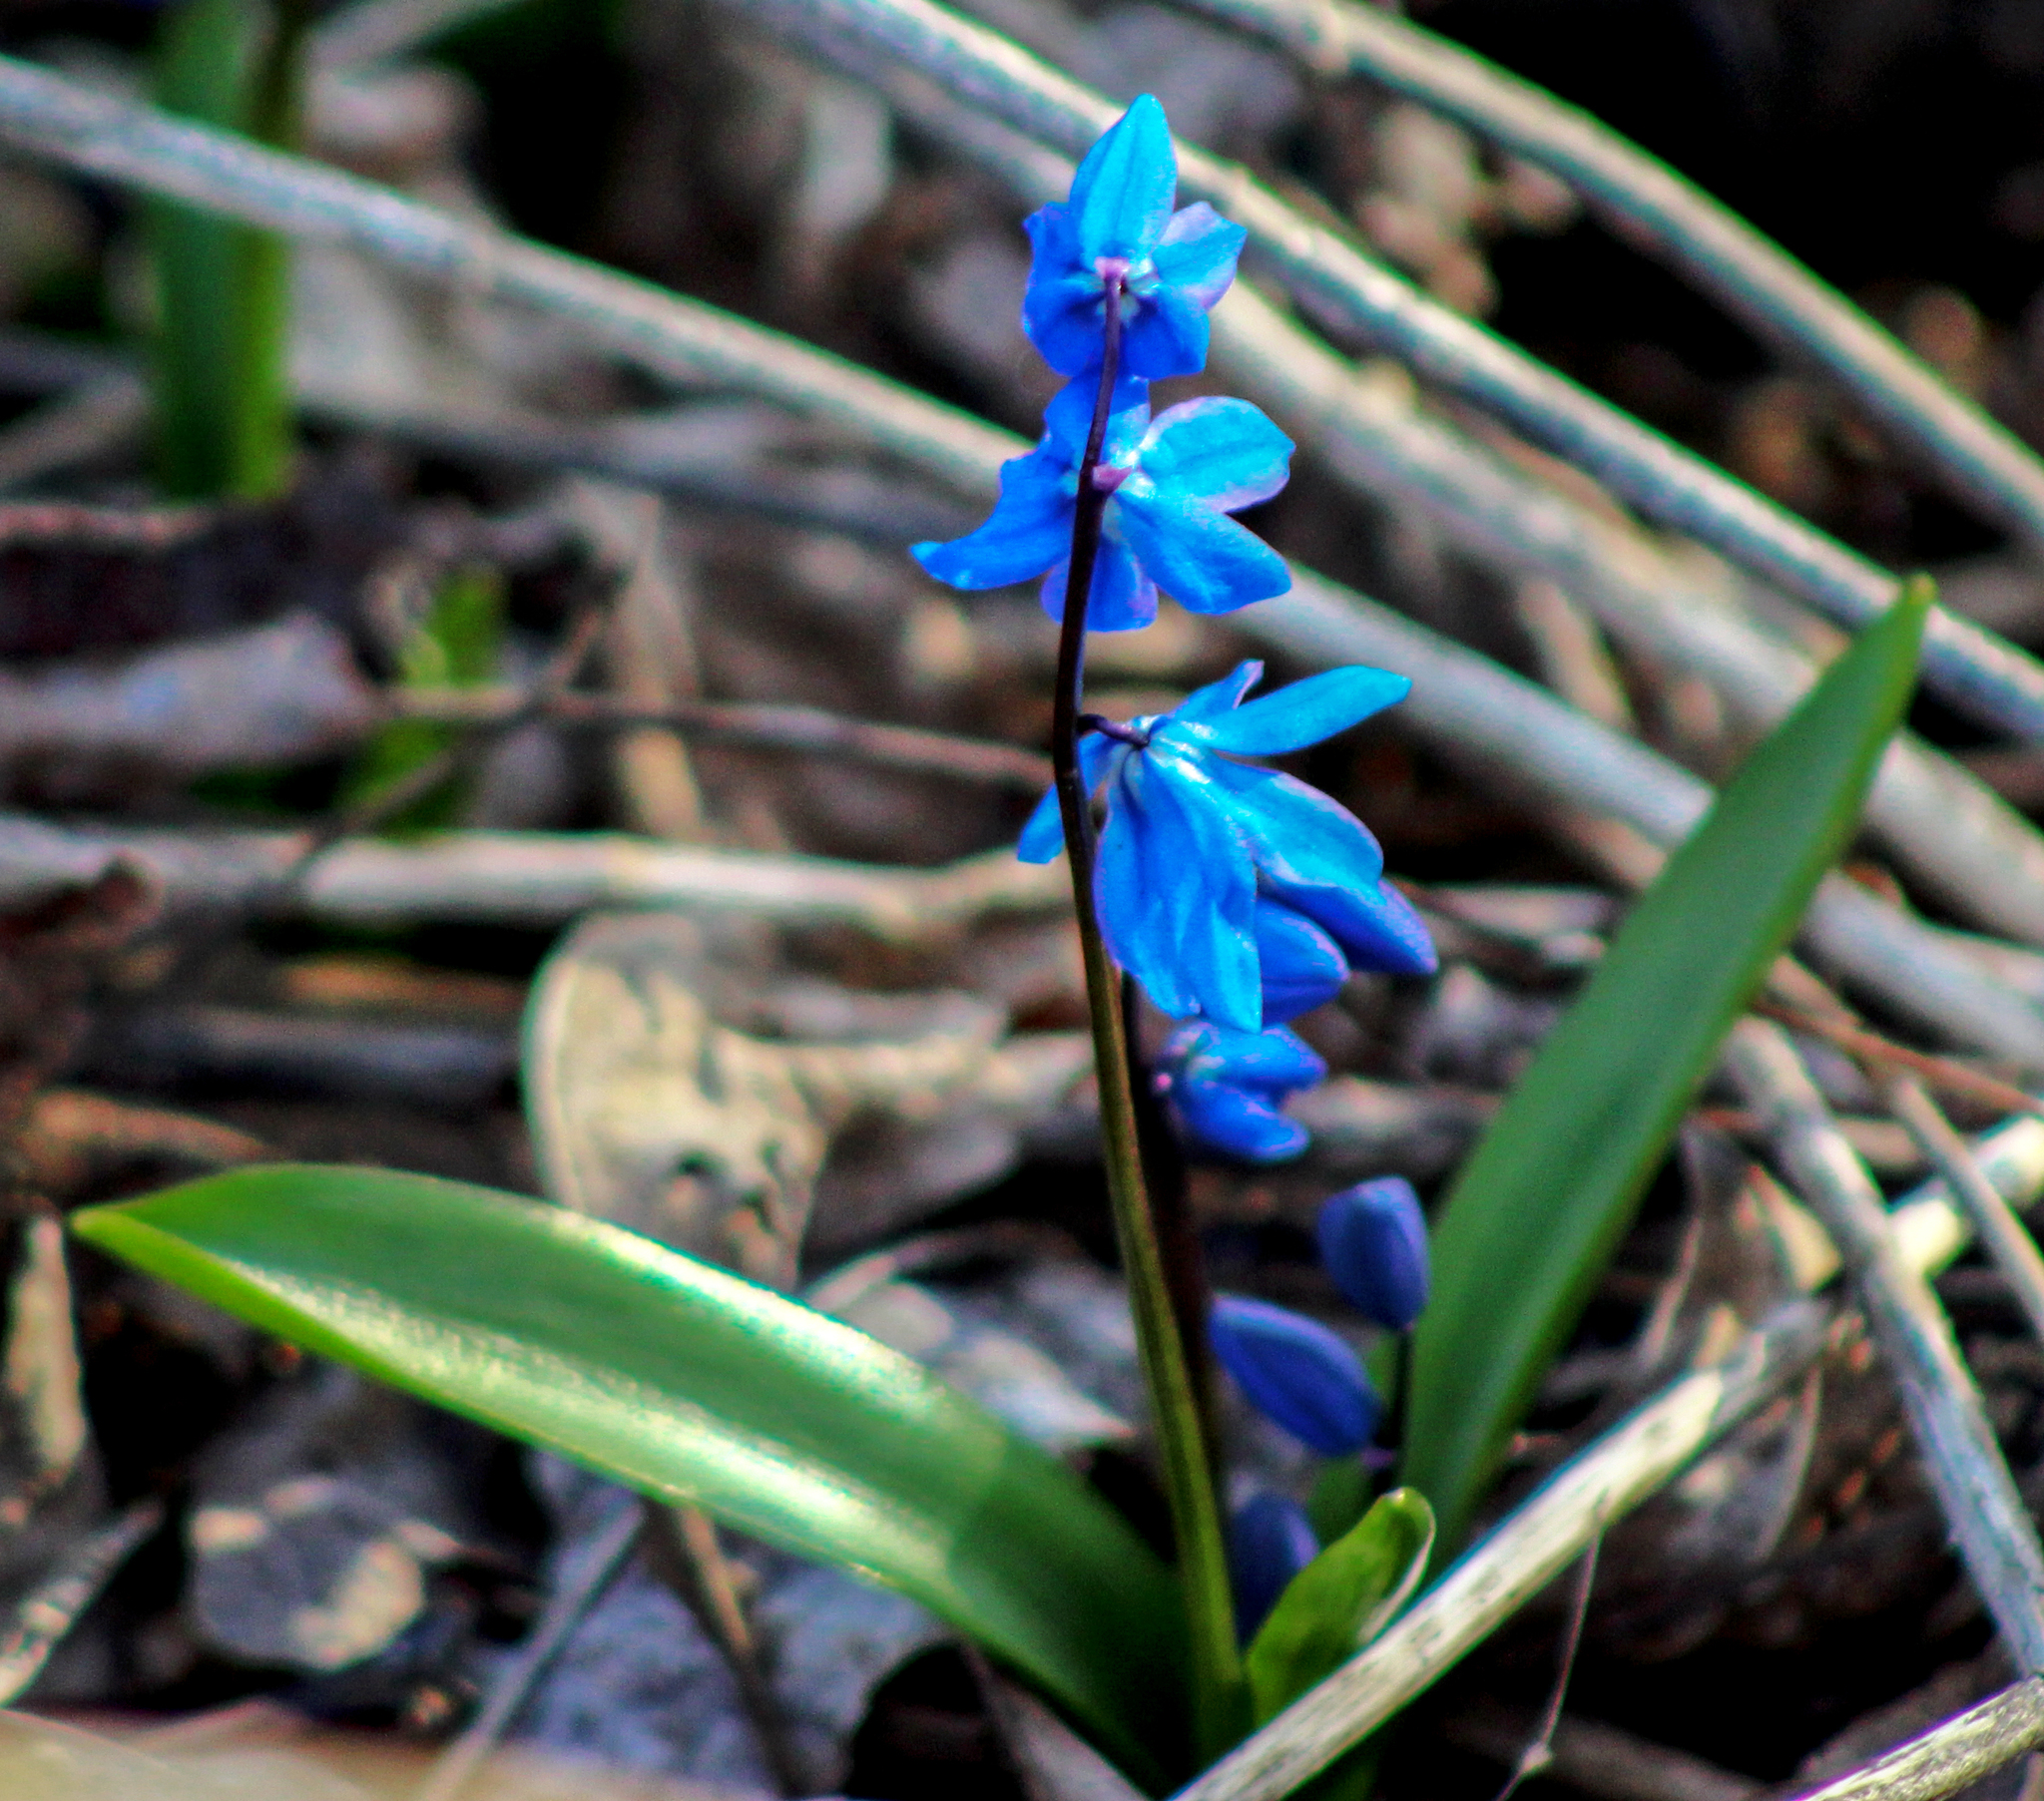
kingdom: Plantae
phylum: Tracheophyta
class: Liliopsida
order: Asparagales
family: Asparagaceae
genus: Scilla
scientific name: Scilla siberica
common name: Siberian squill
